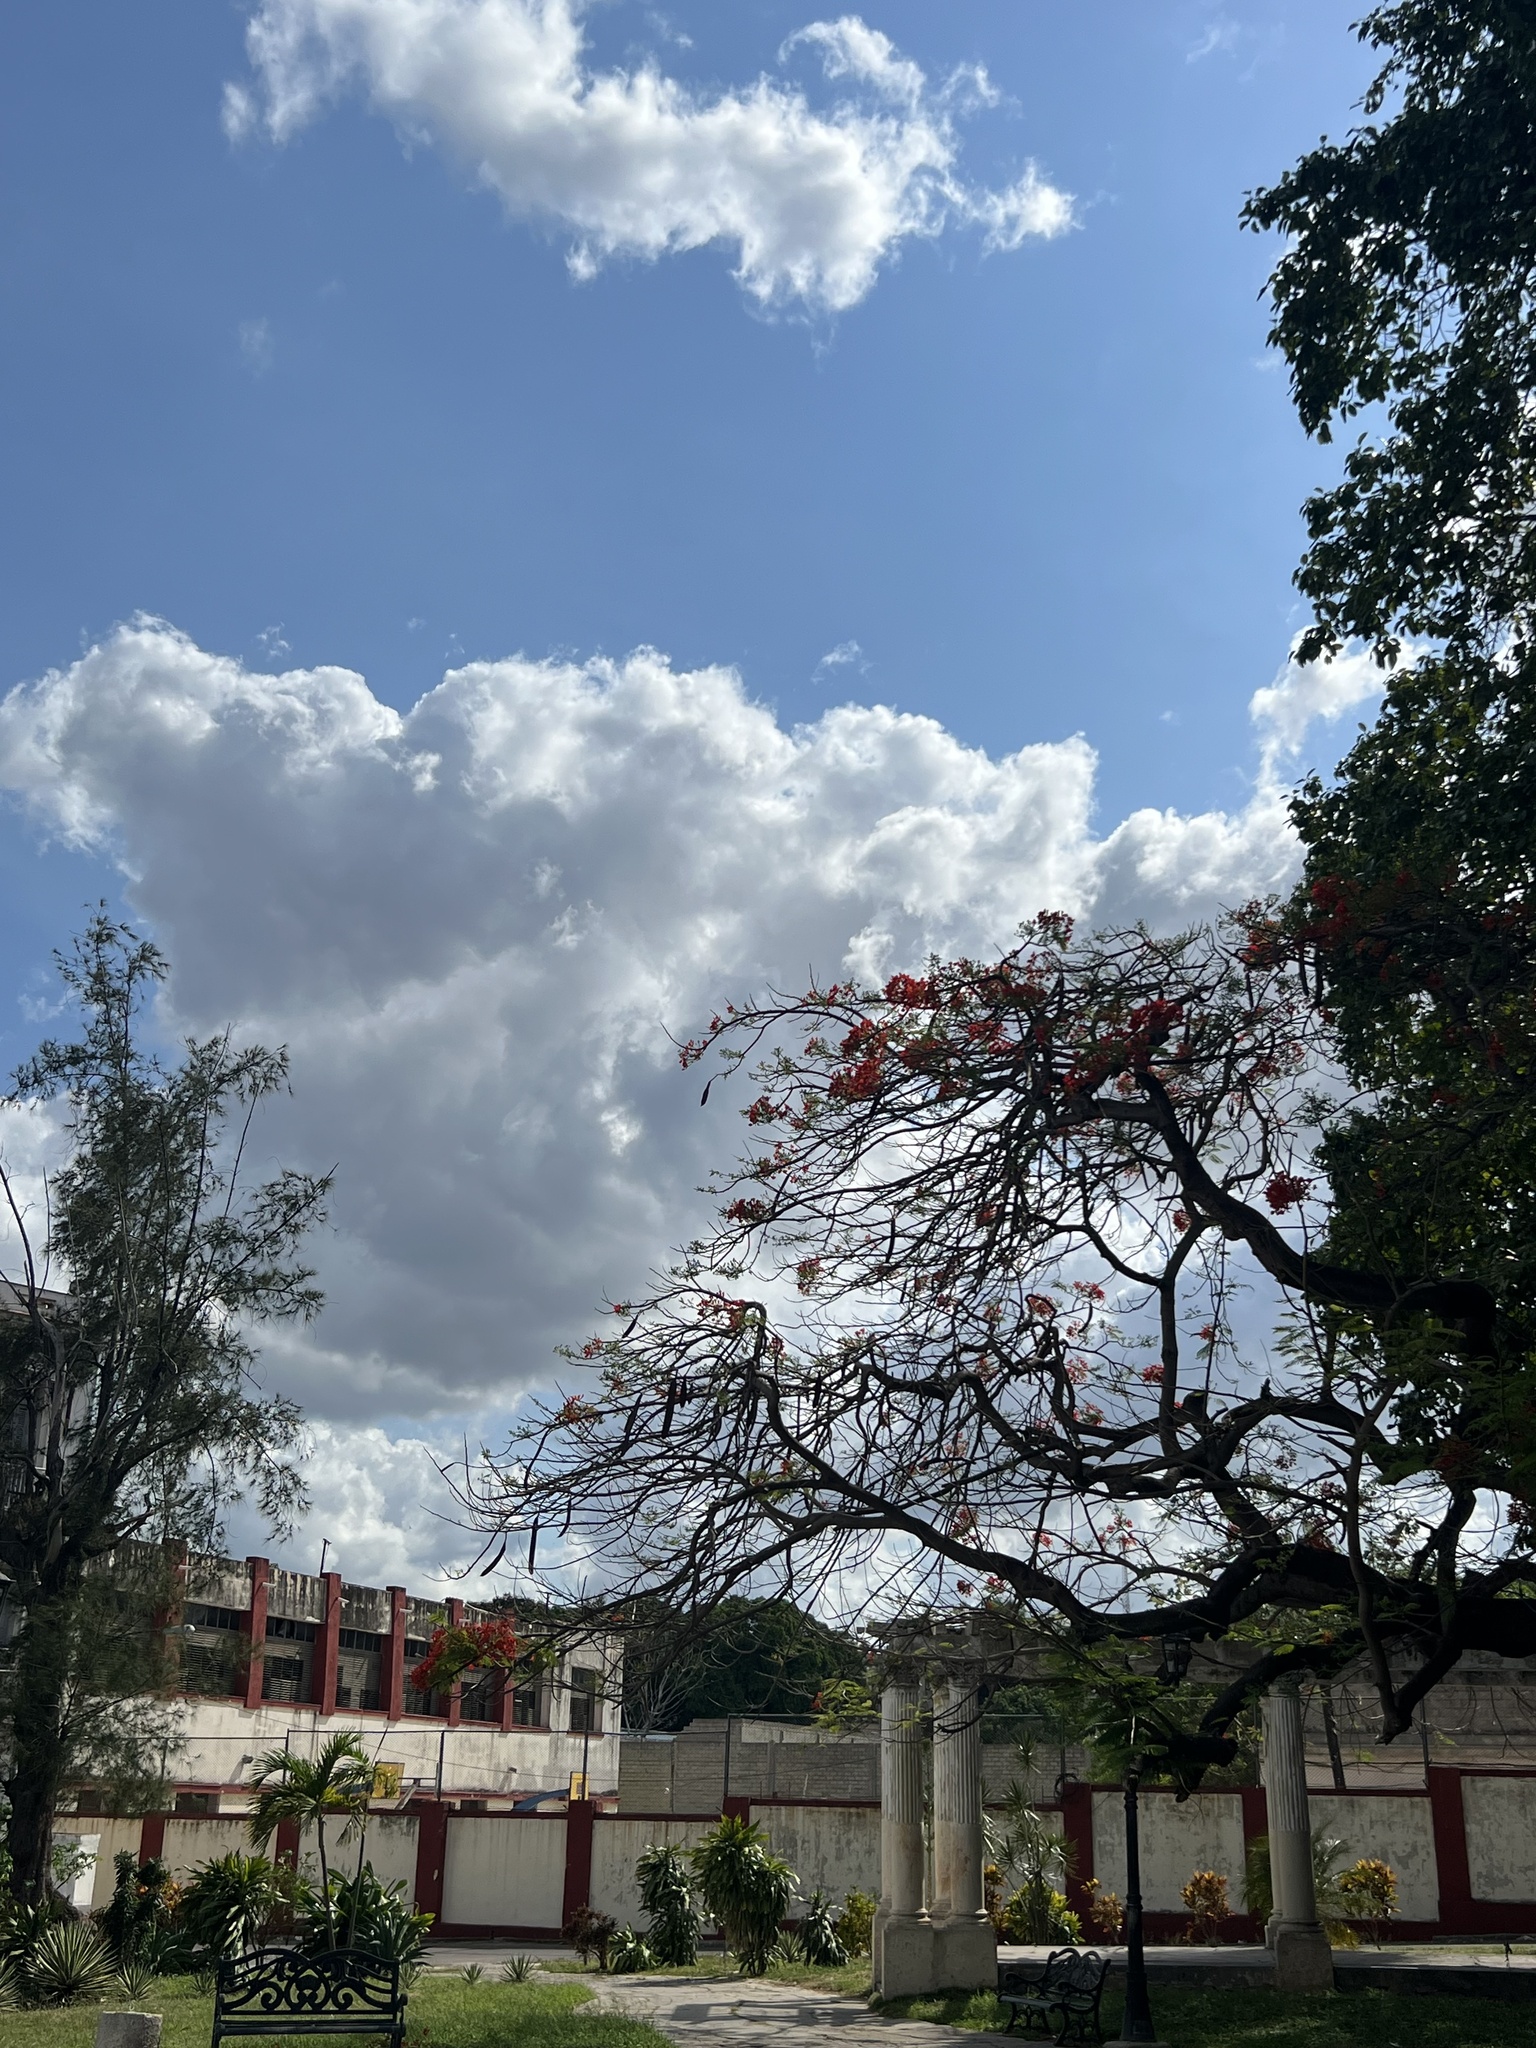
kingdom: Plantae
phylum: Tracheophyta
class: Magnoliopsida
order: Fabales
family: Fabaceae
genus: Delonix
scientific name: Delonix regia
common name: Royal poinciana
